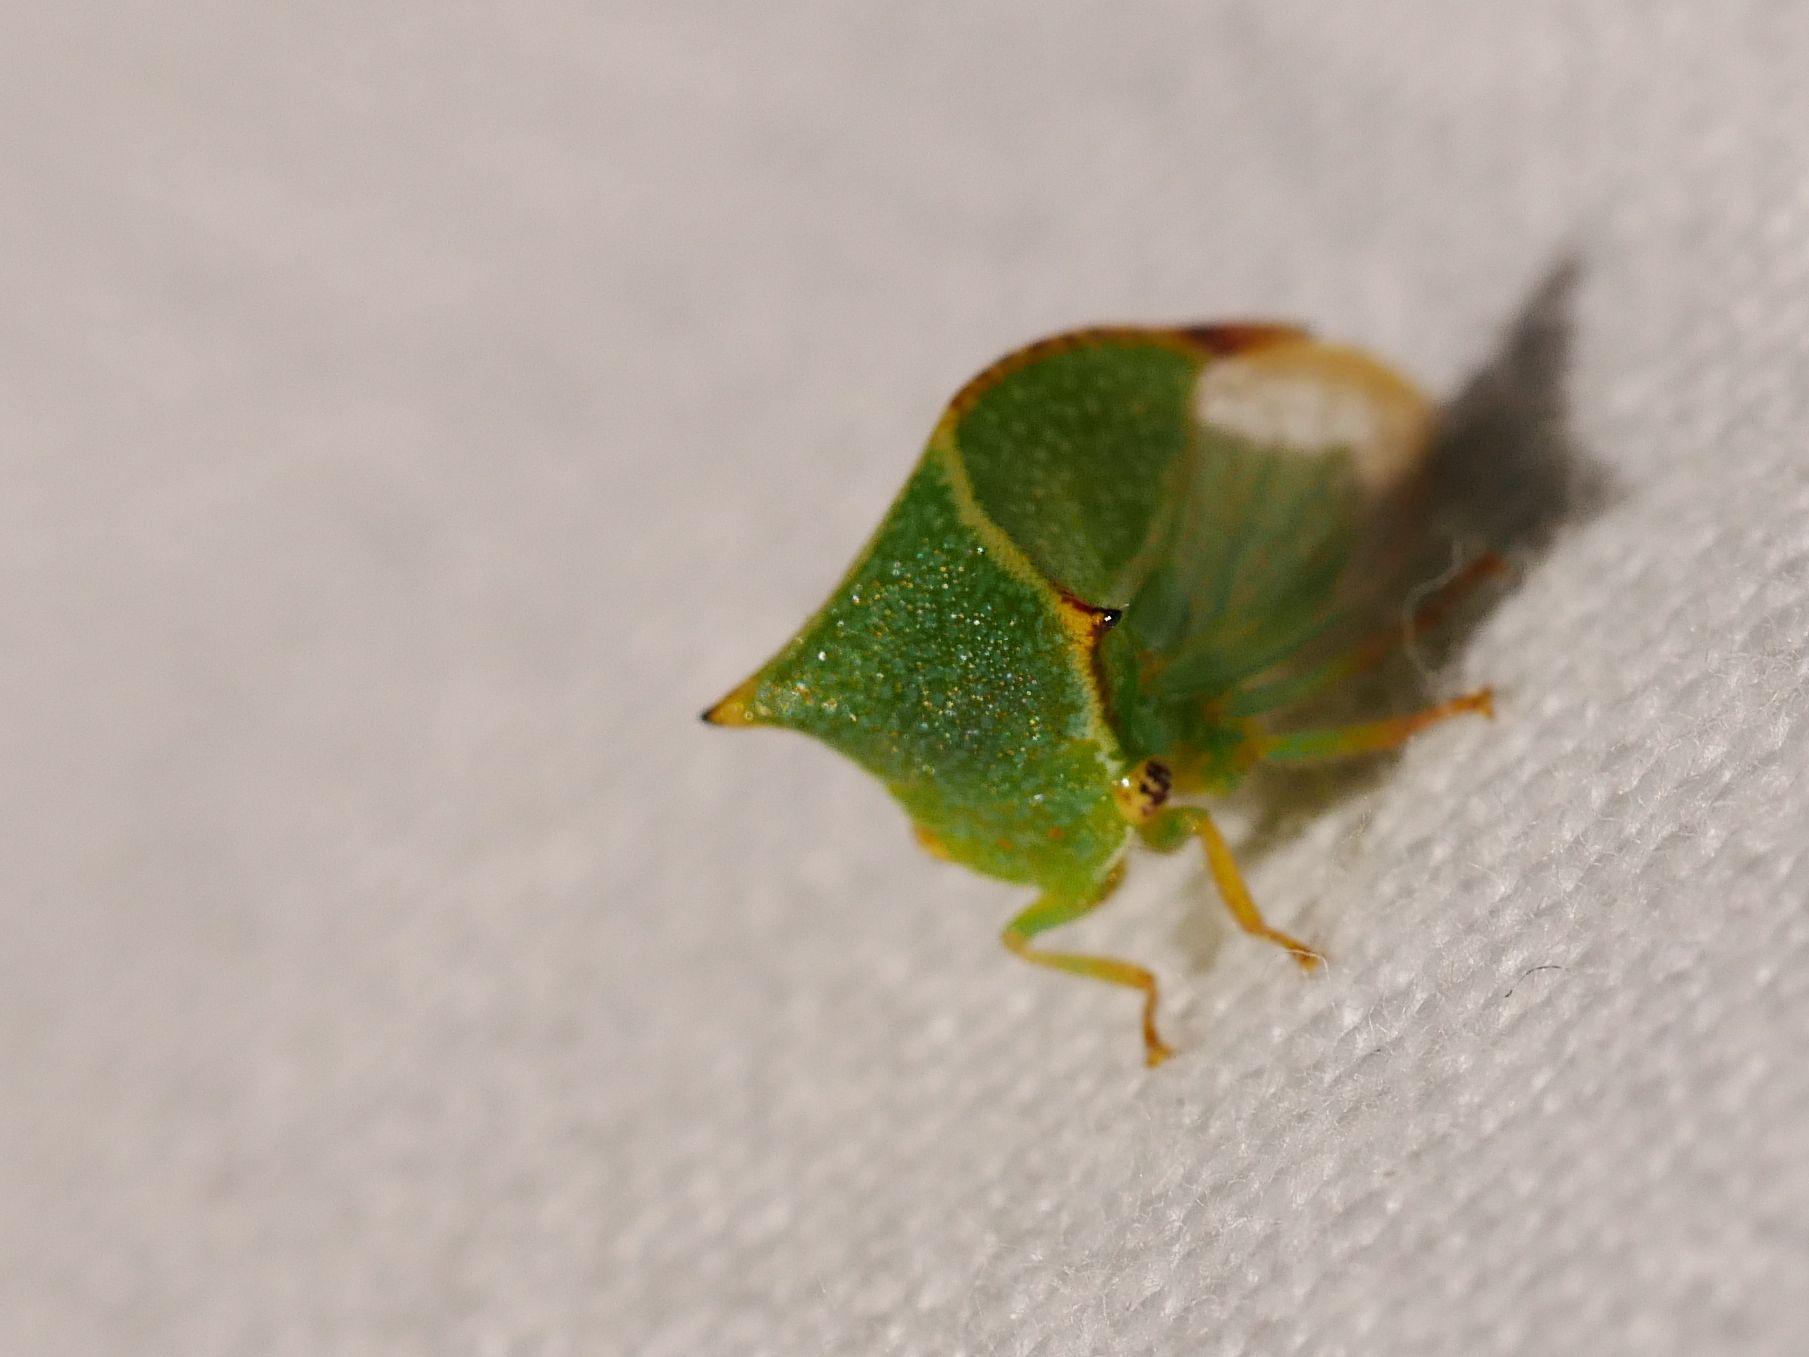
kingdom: Animalia
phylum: Arthropoda
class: Insecta
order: Hemiptera
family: Membracidae
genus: Stictocephala
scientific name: Stictocephala bisonia
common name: American buffalo treehopper
